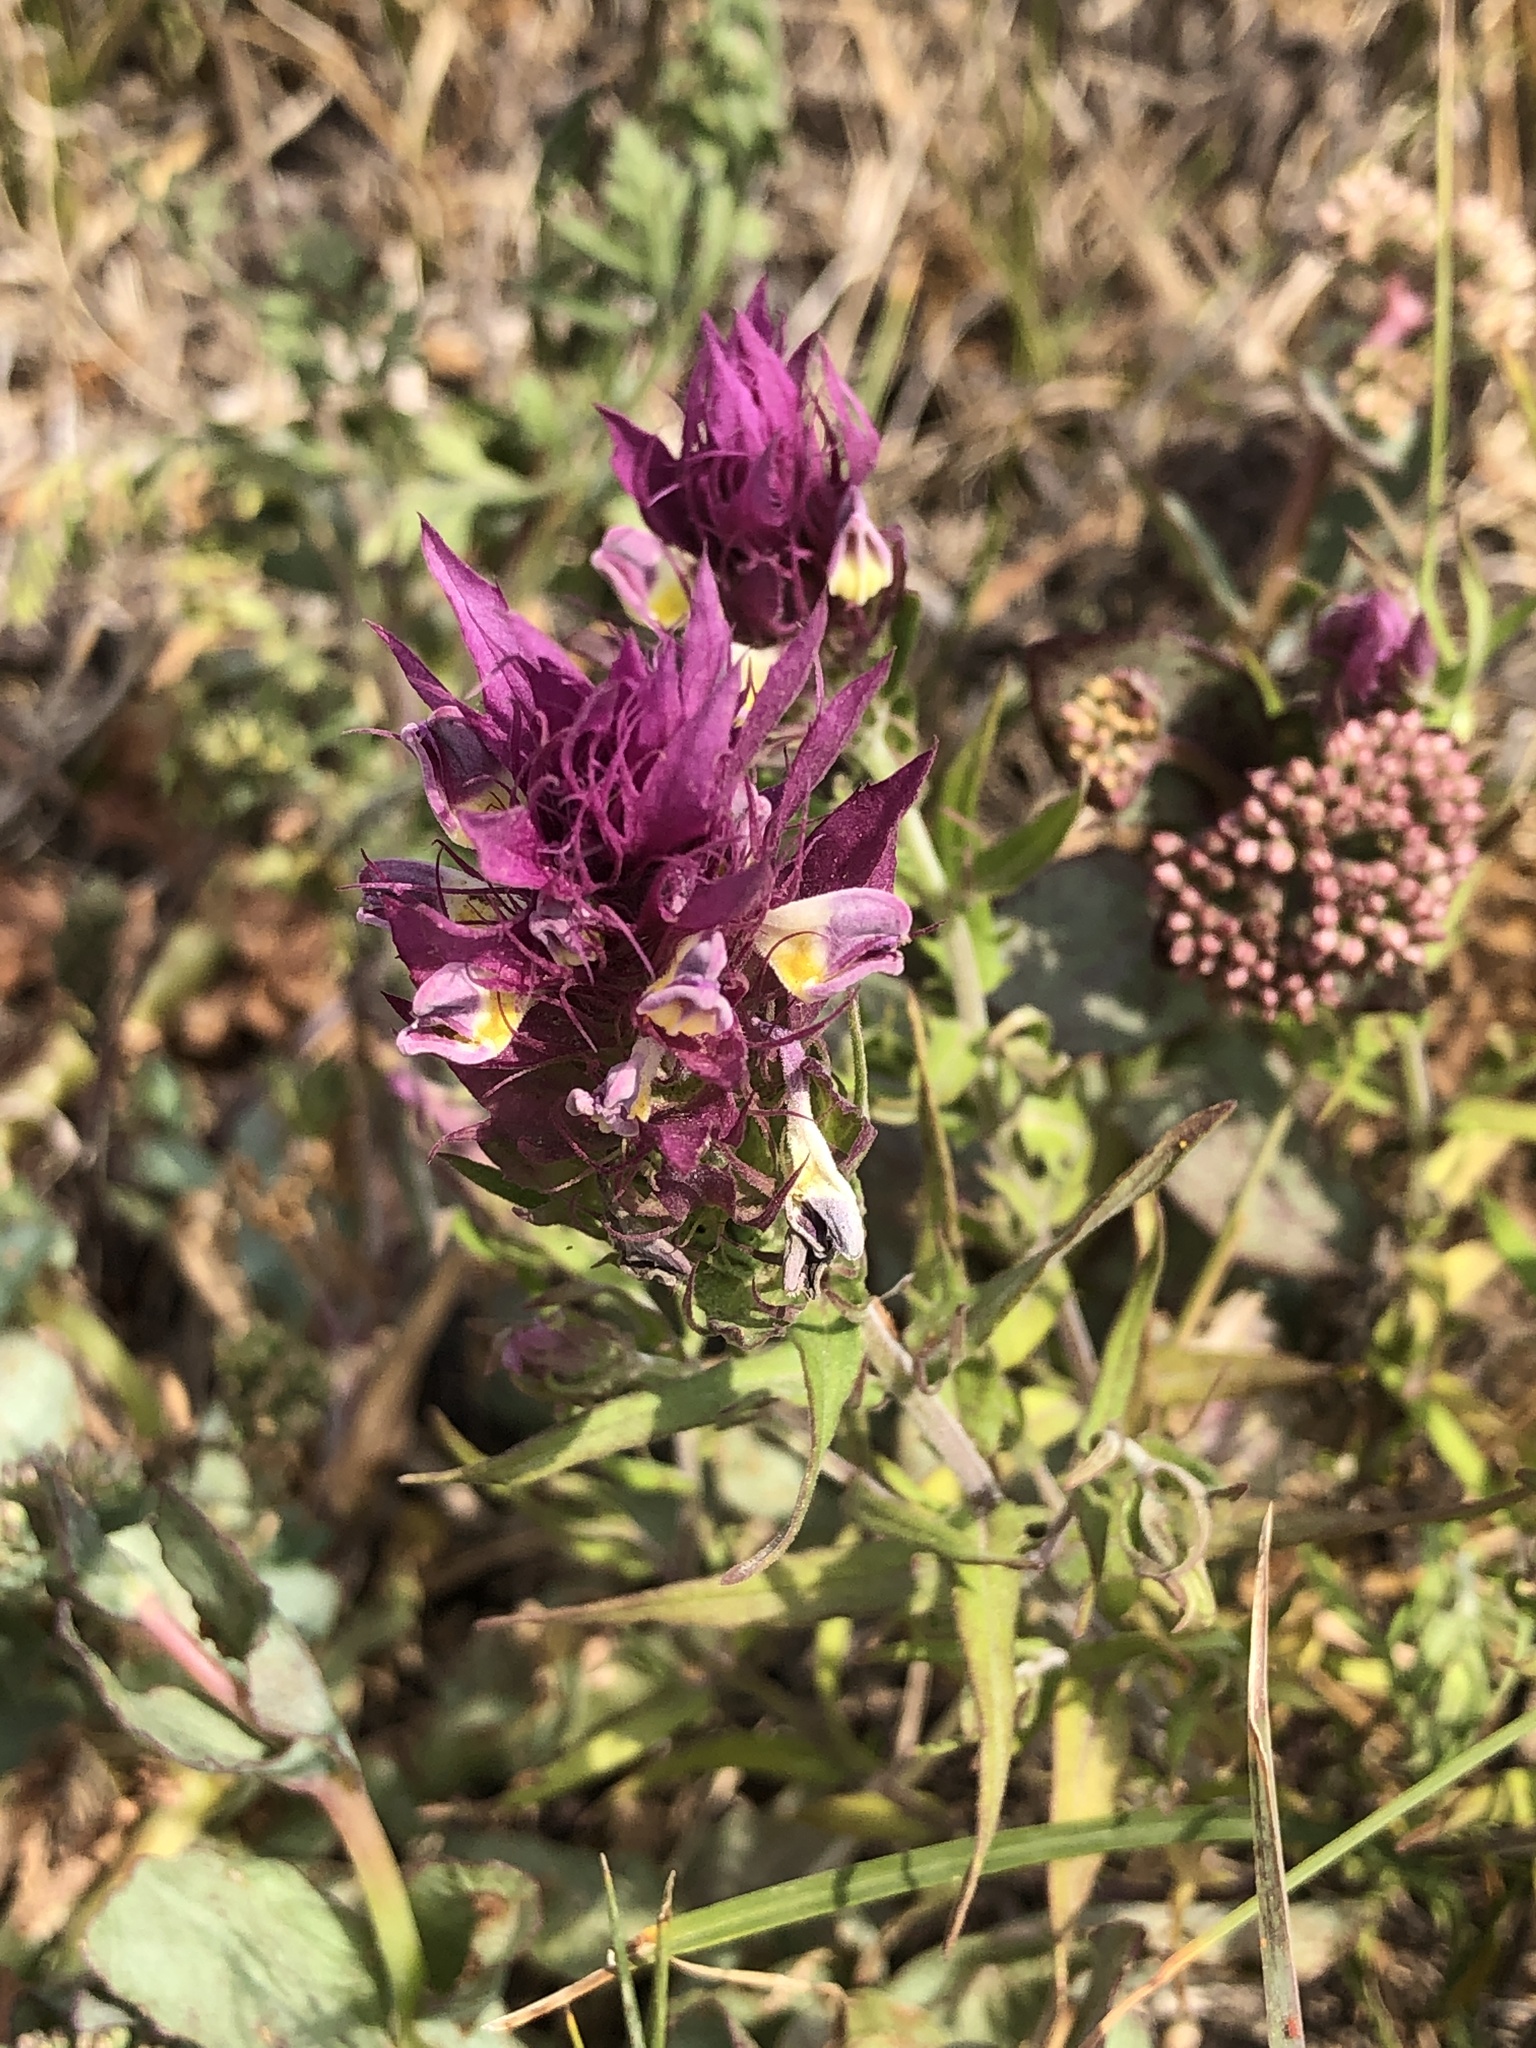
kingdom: Plantae
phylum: Tracheophyta
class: Magnoliopsida
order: Lamiales
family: Orobanchaceae
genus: Melampyrum
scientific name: Melampyrum arvense
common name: Field cow-wheat
